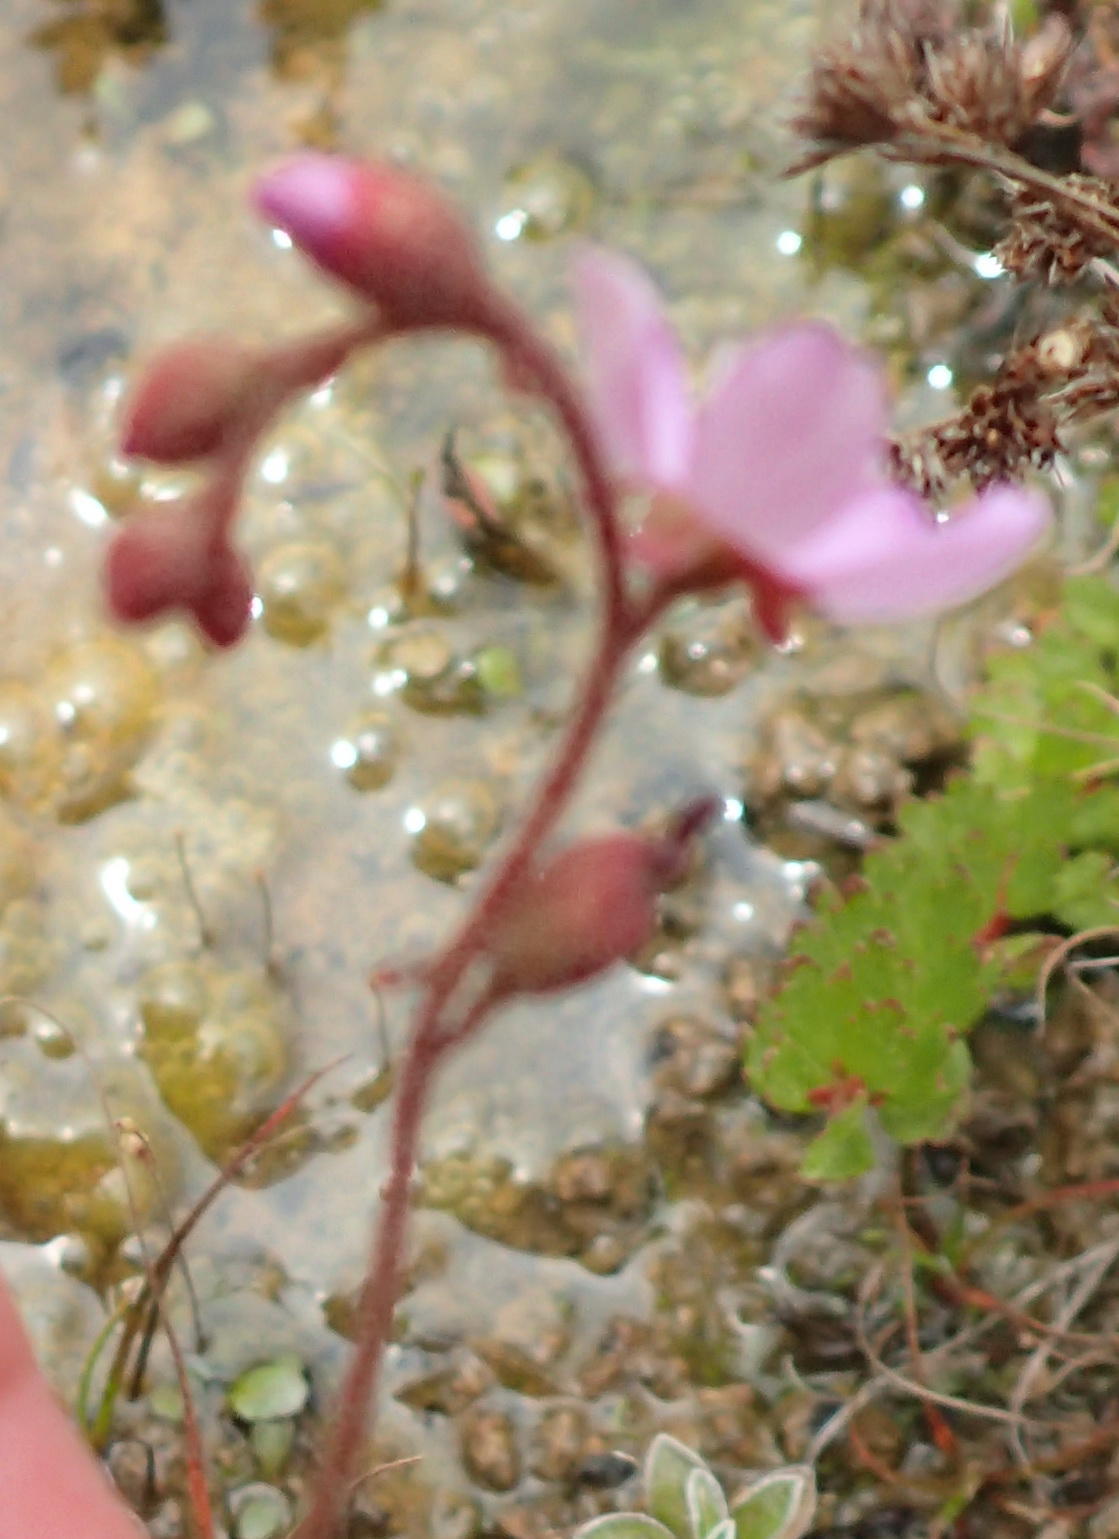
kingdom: Plantae
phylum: Tracheophyta
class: Magnoliopsida
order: Caryophyllales
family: Droseraceae
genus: Drosera
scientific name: Drosera aliciae
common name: Alice sundew
